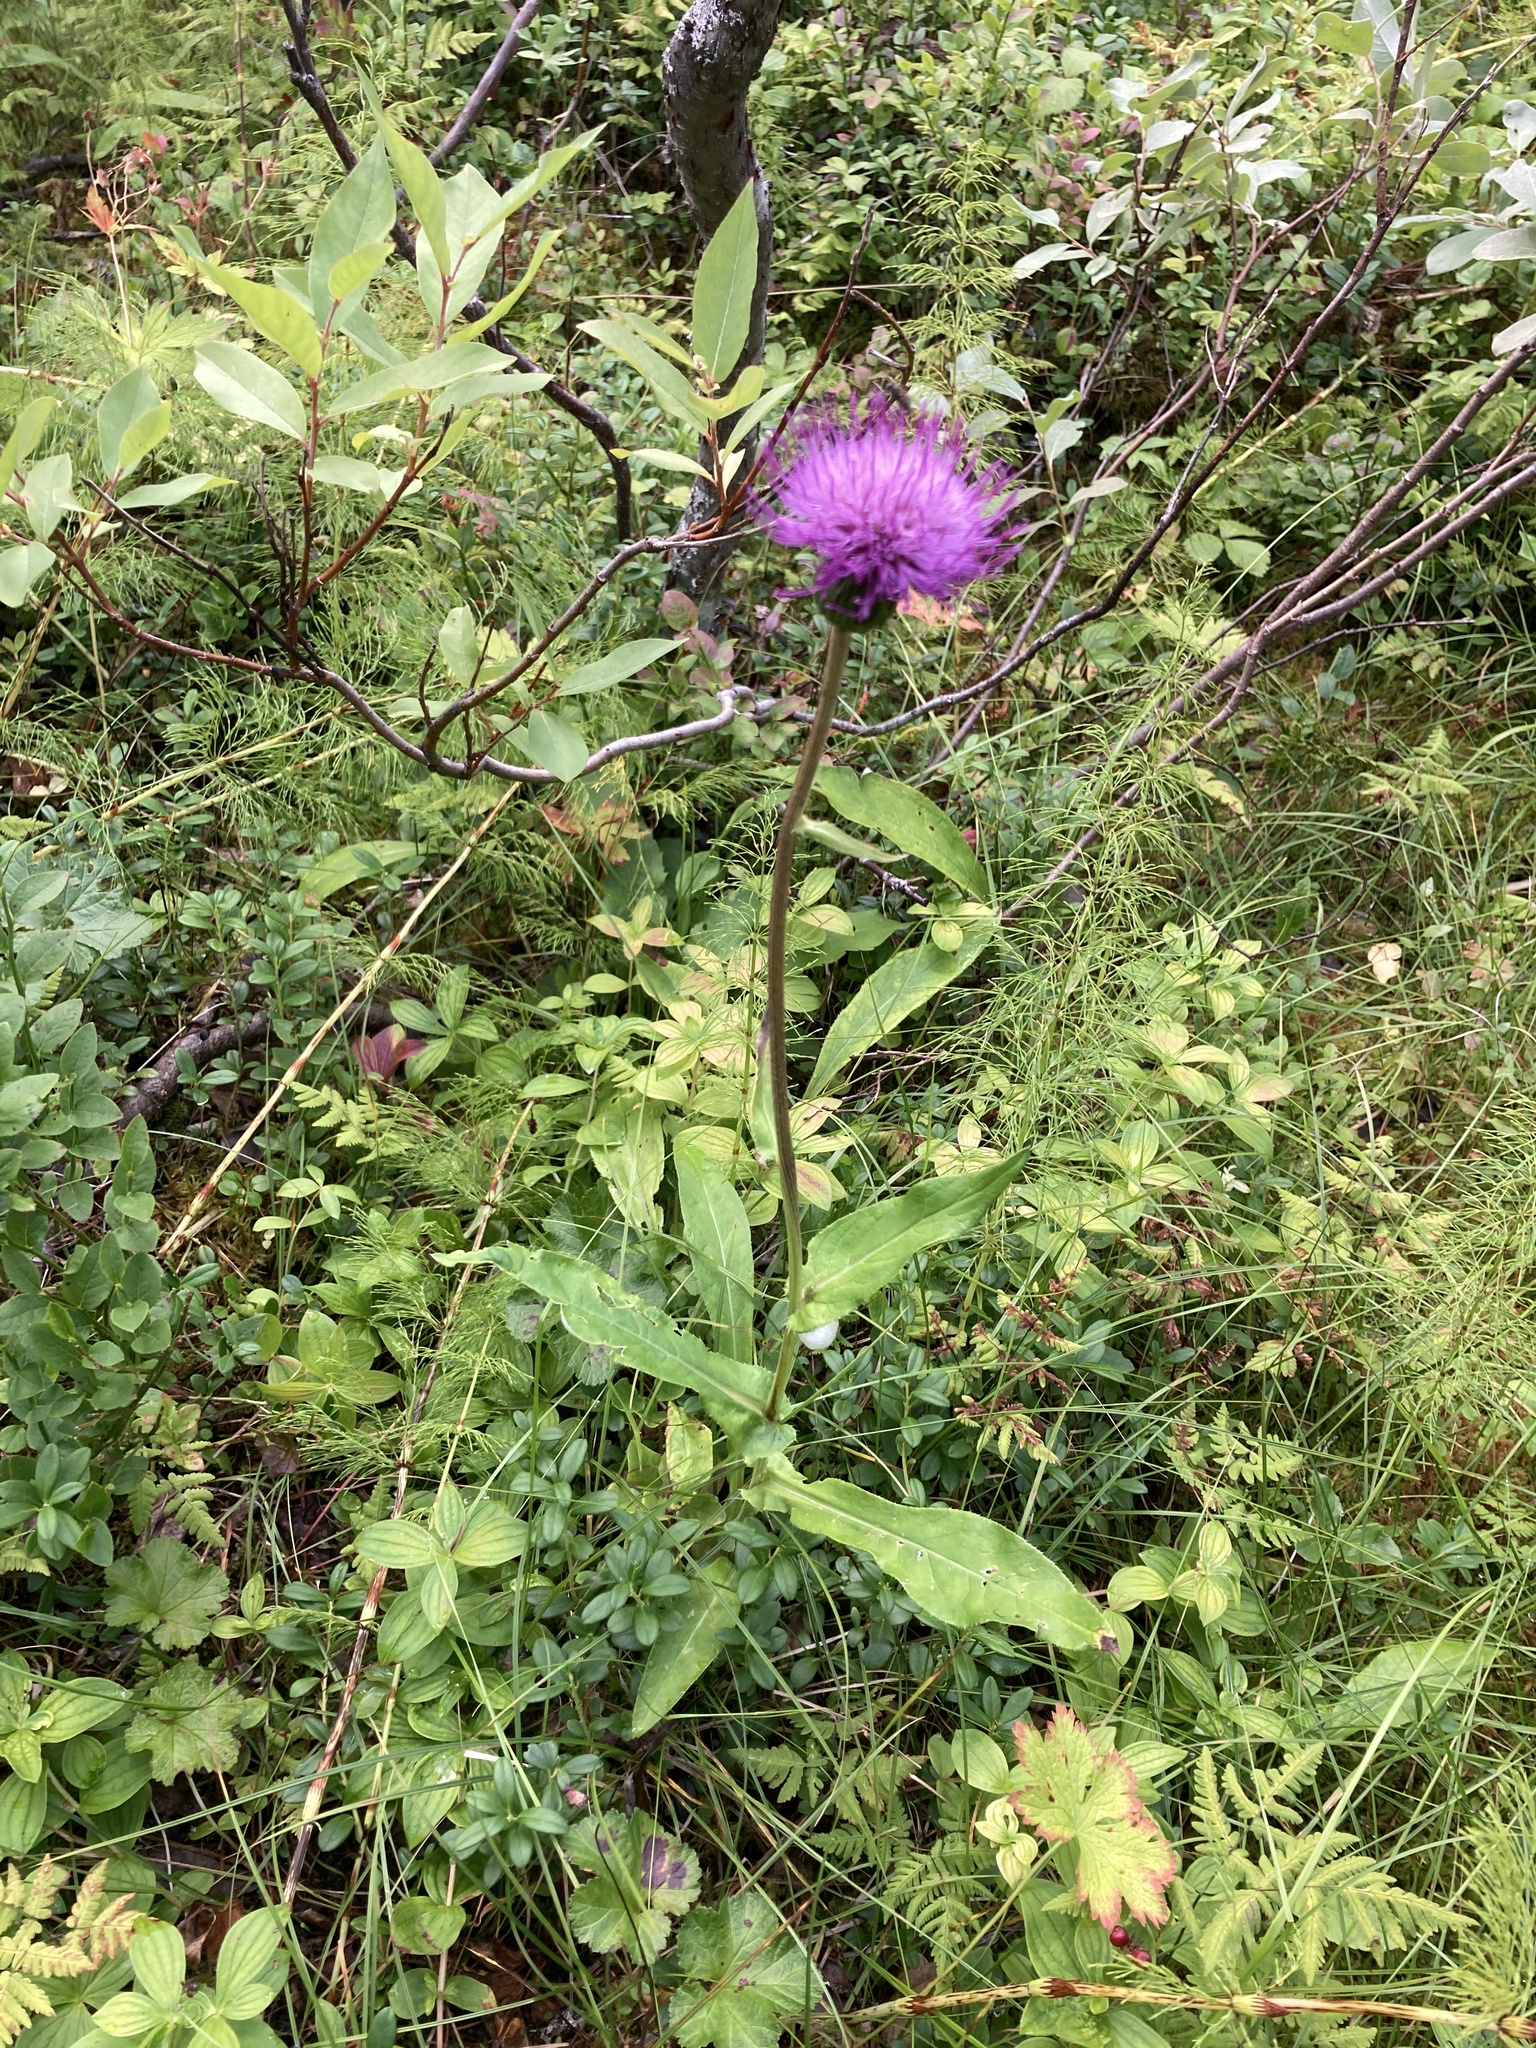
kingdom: Plantae
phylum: Tracheophyta
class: Magnoliopsida
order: Asterales
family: Asteraceae
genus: Cirsium
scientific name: Cirsium heterophyllum
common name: Melancholy thistle
